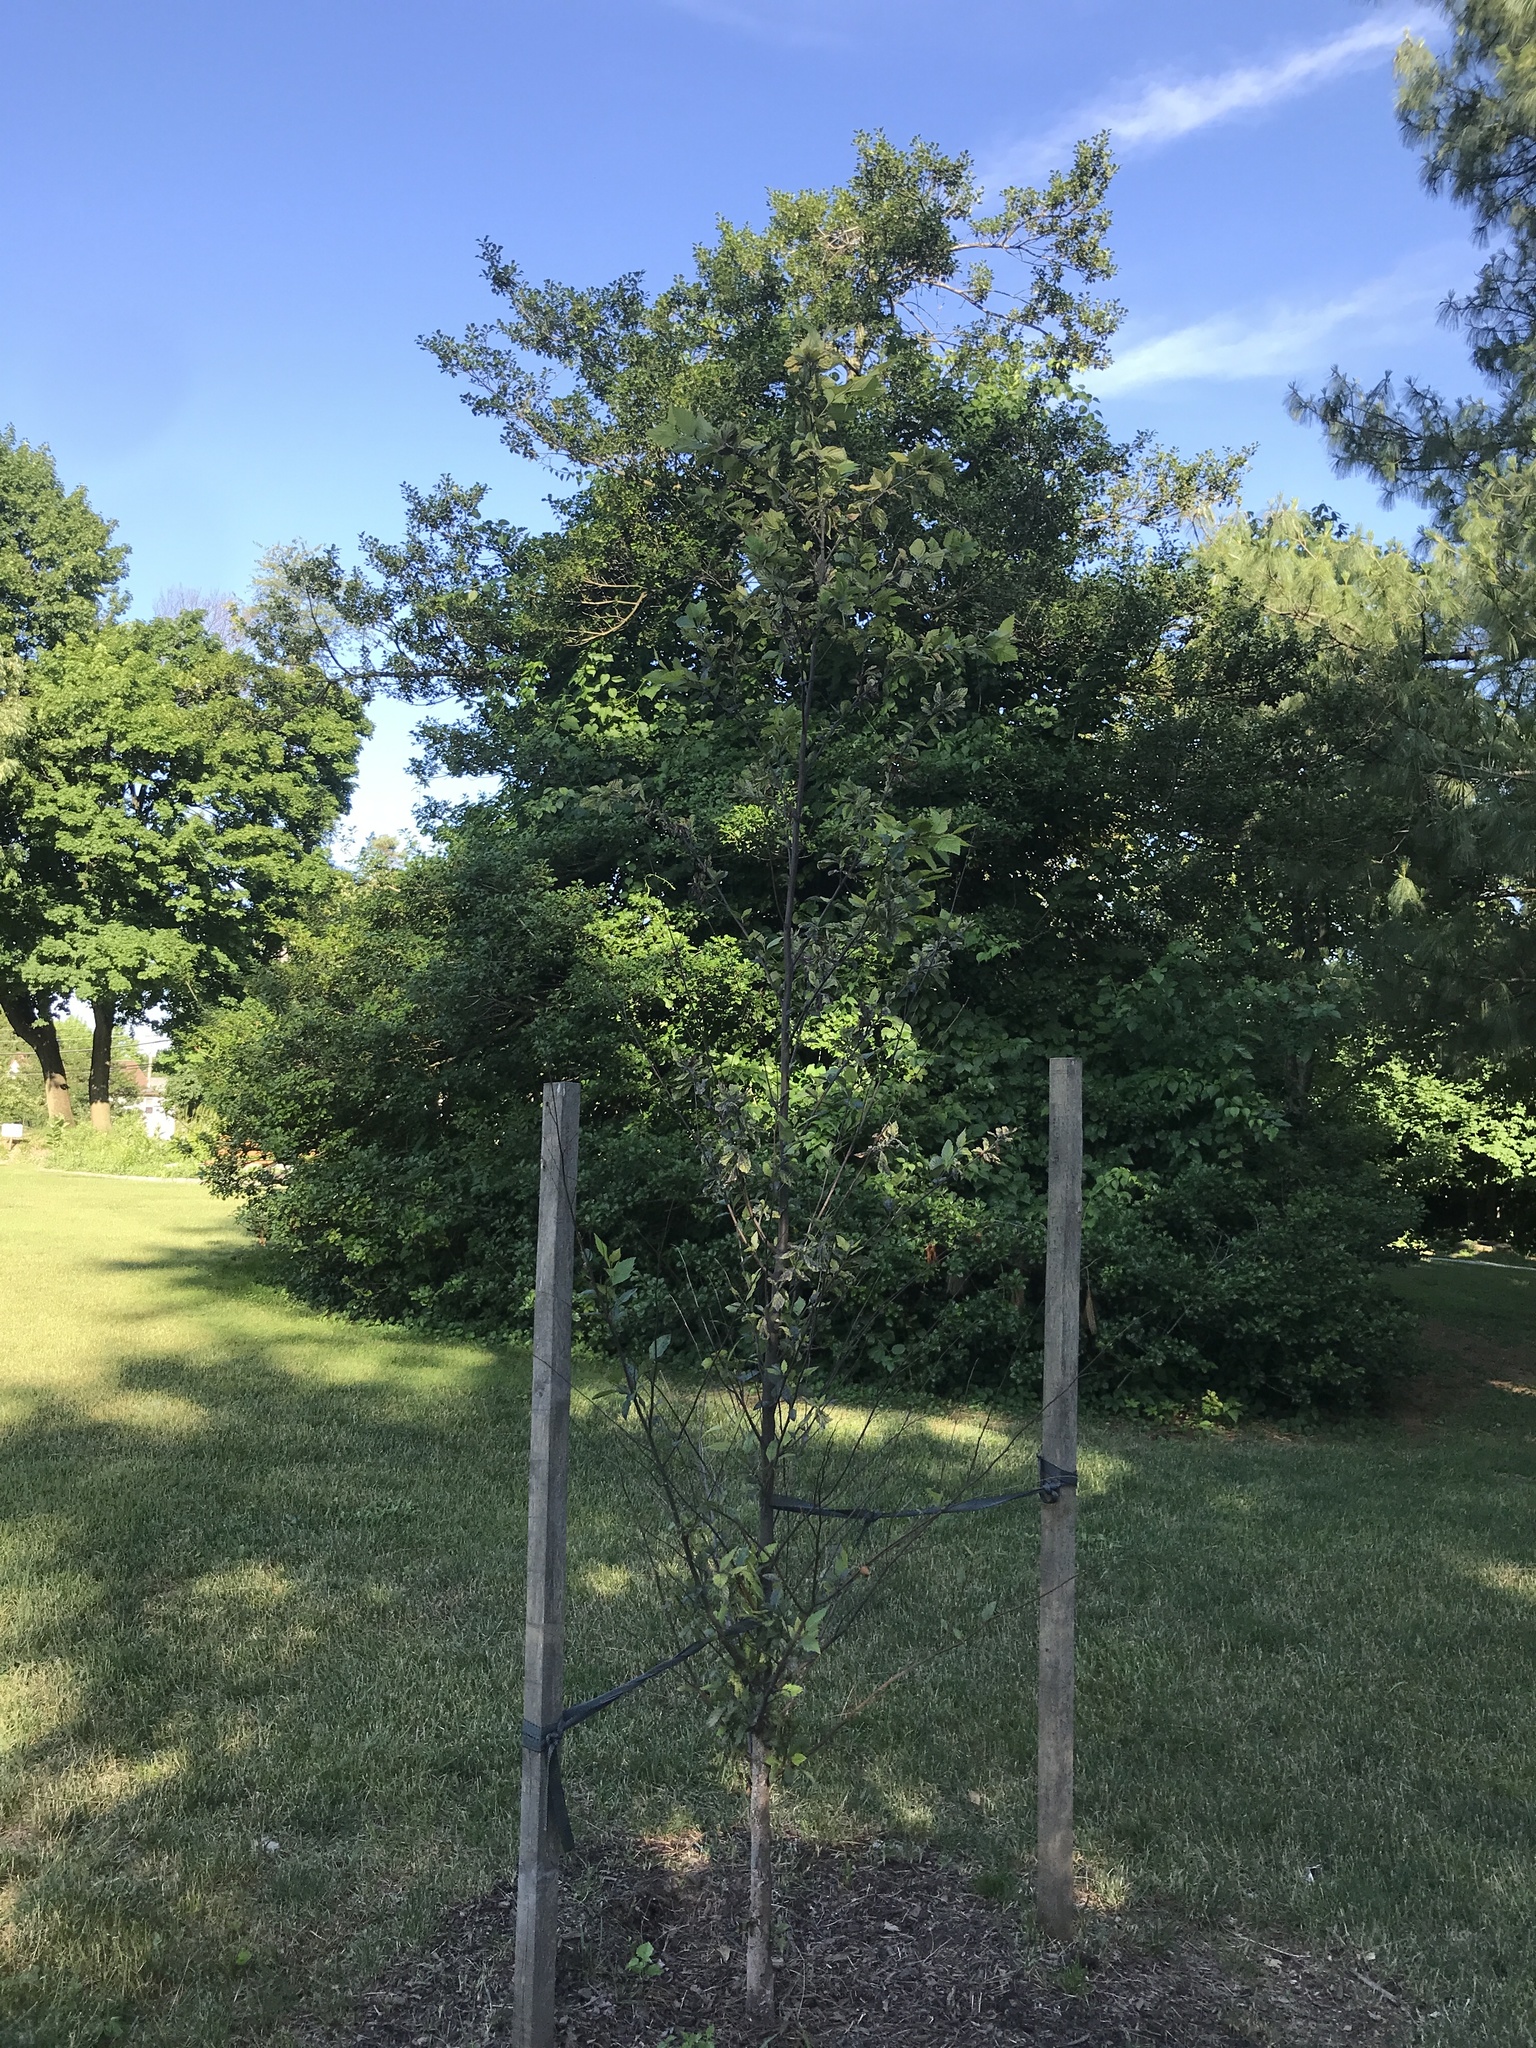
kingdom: Animalia
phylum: Arthropoda
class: Insecta
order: Hemiptera
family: Aphididae
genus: Hamamelistes
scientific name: Hamamelistes spinosus
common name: Witch hazel gall aphid
